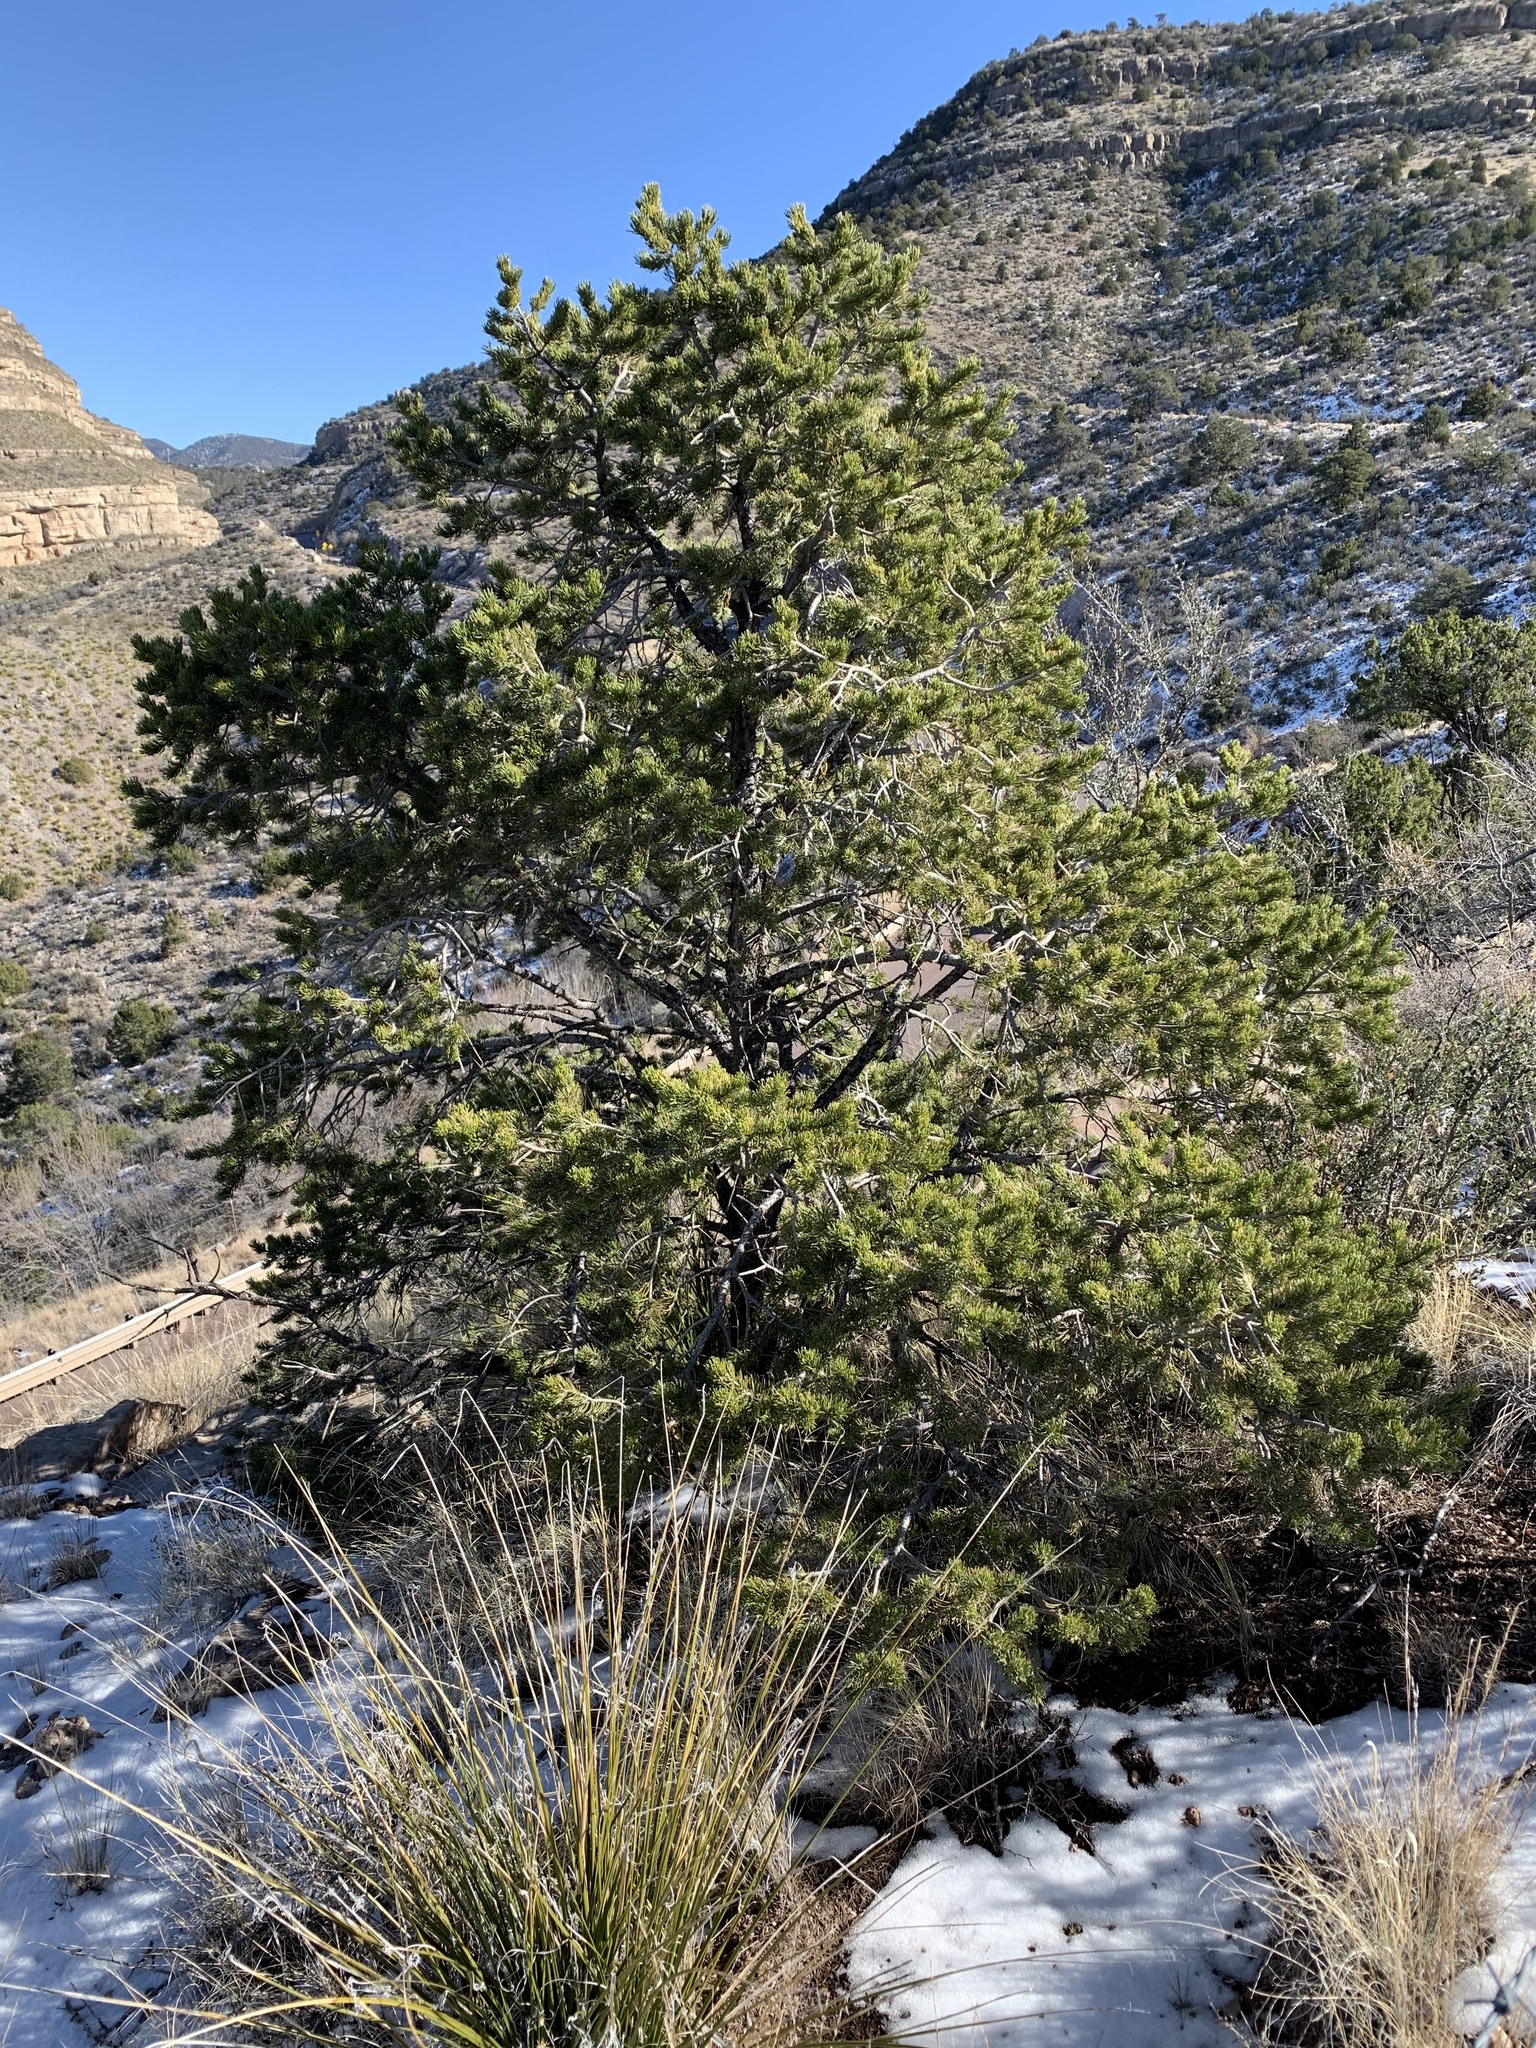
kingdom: Plantae
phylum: Tracheophyta
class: Pinopsida
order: Pinales
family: Pinaceae
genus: Pinus
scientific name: Pinus edulis
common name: Colorado pinyon
